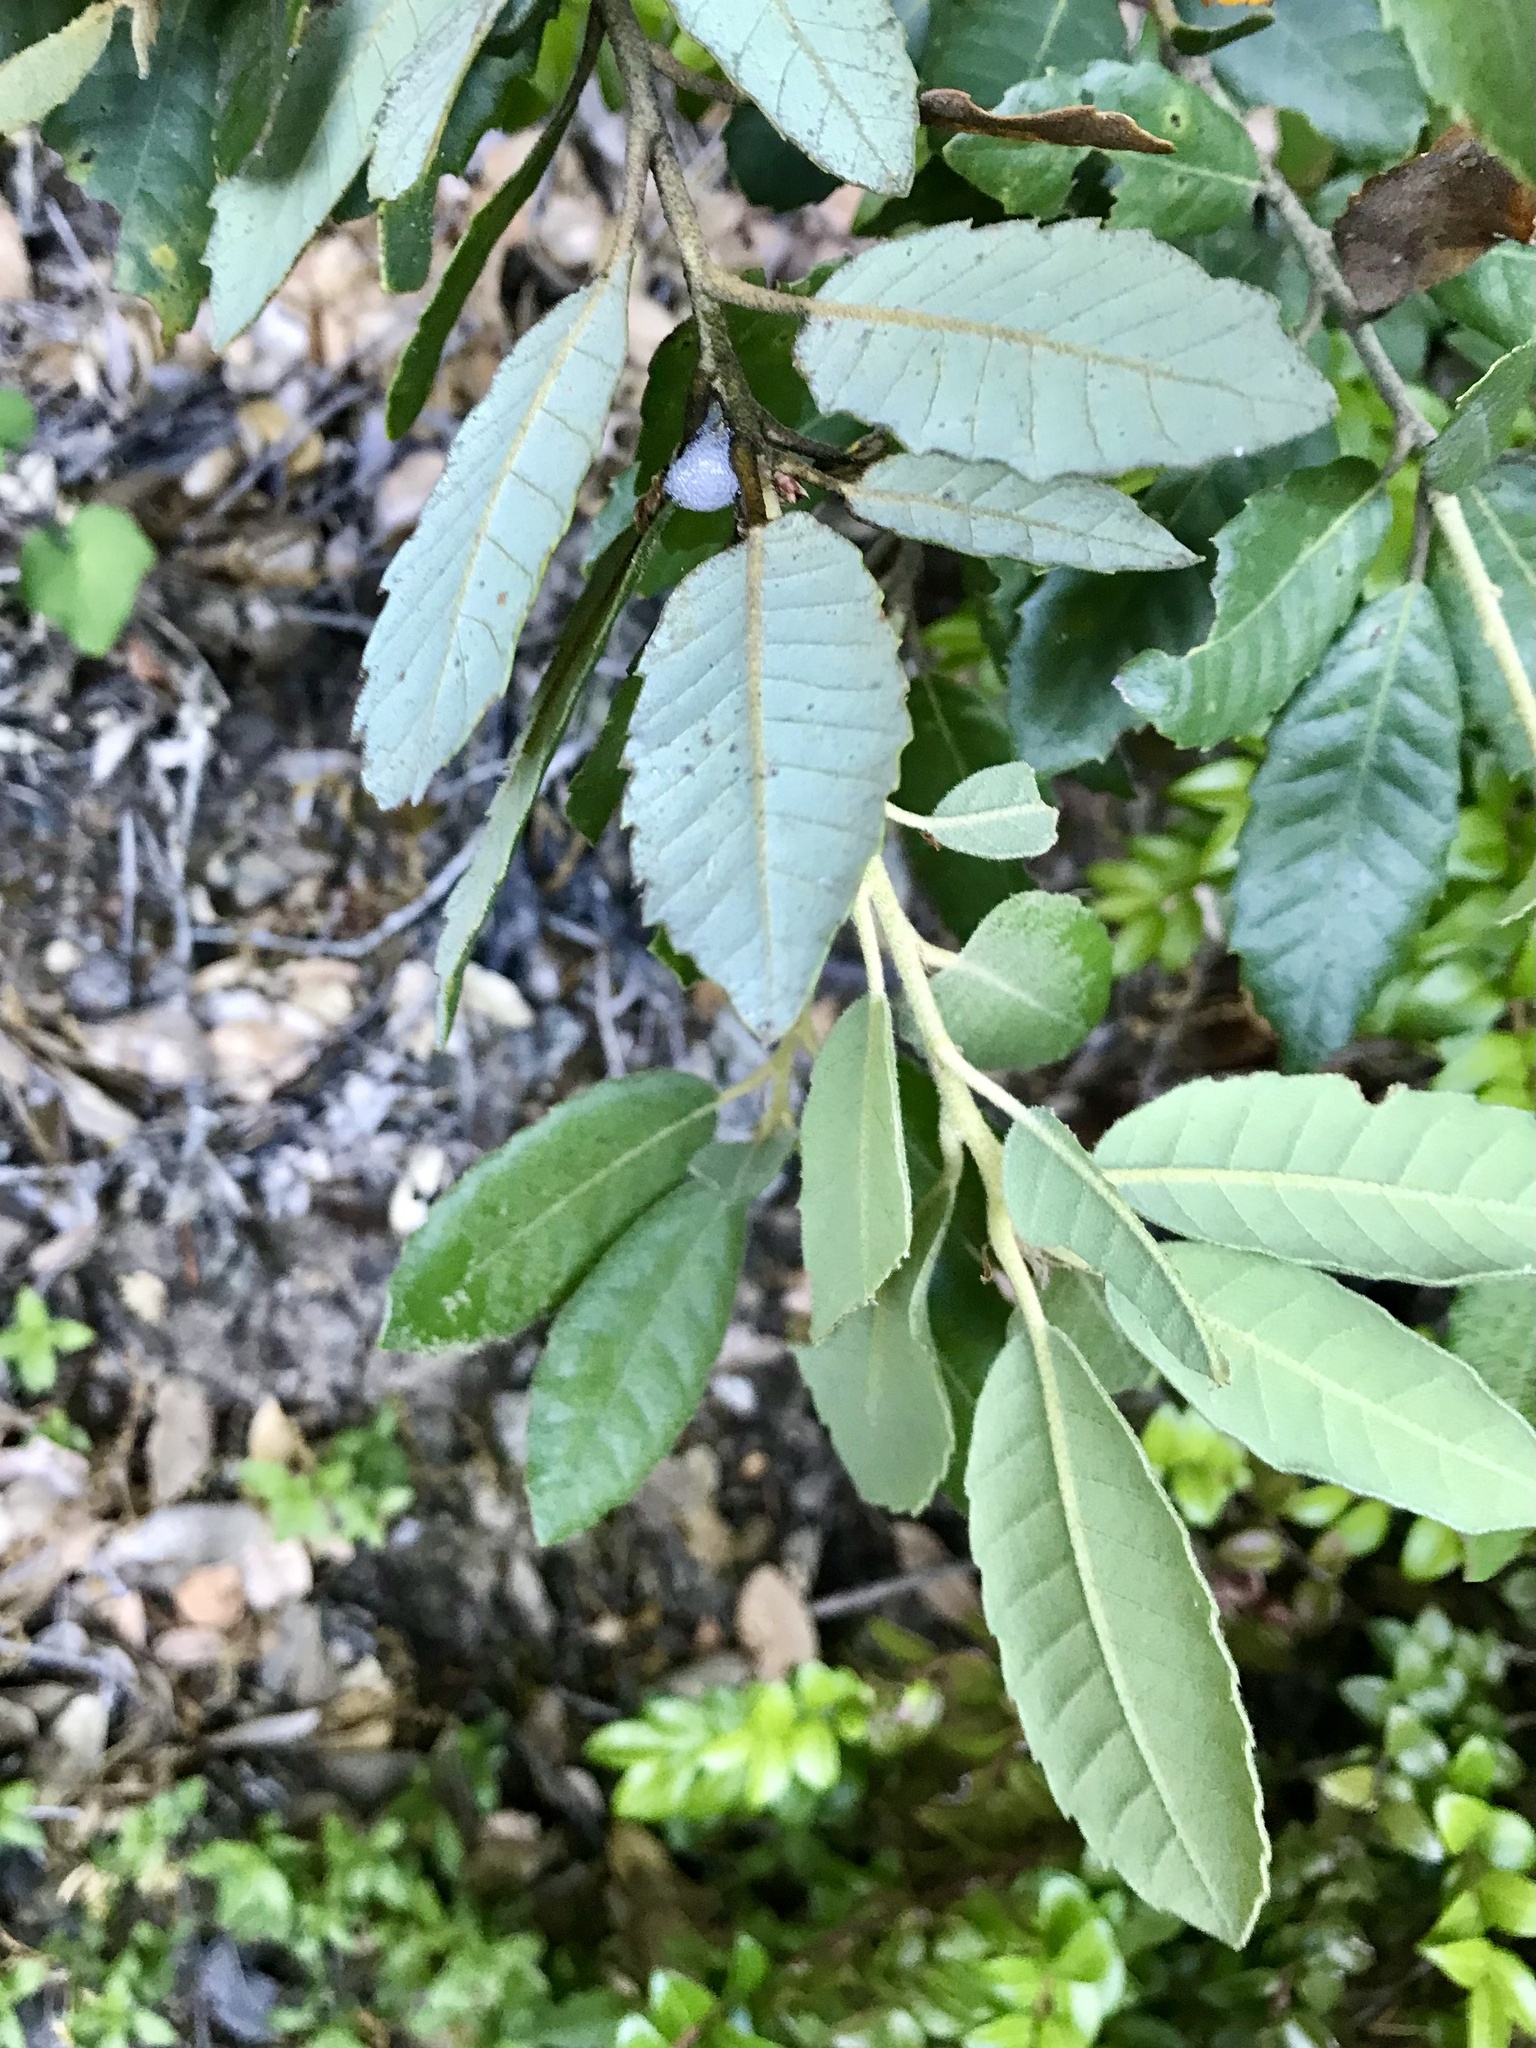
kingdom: Plantae
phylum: Tracheophyta
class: Magnoliopsida
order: Fagales
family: Fagaceae
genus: Notholithocarpus
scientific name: Notholithocarpus densiflorus
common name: Tan bark oak
